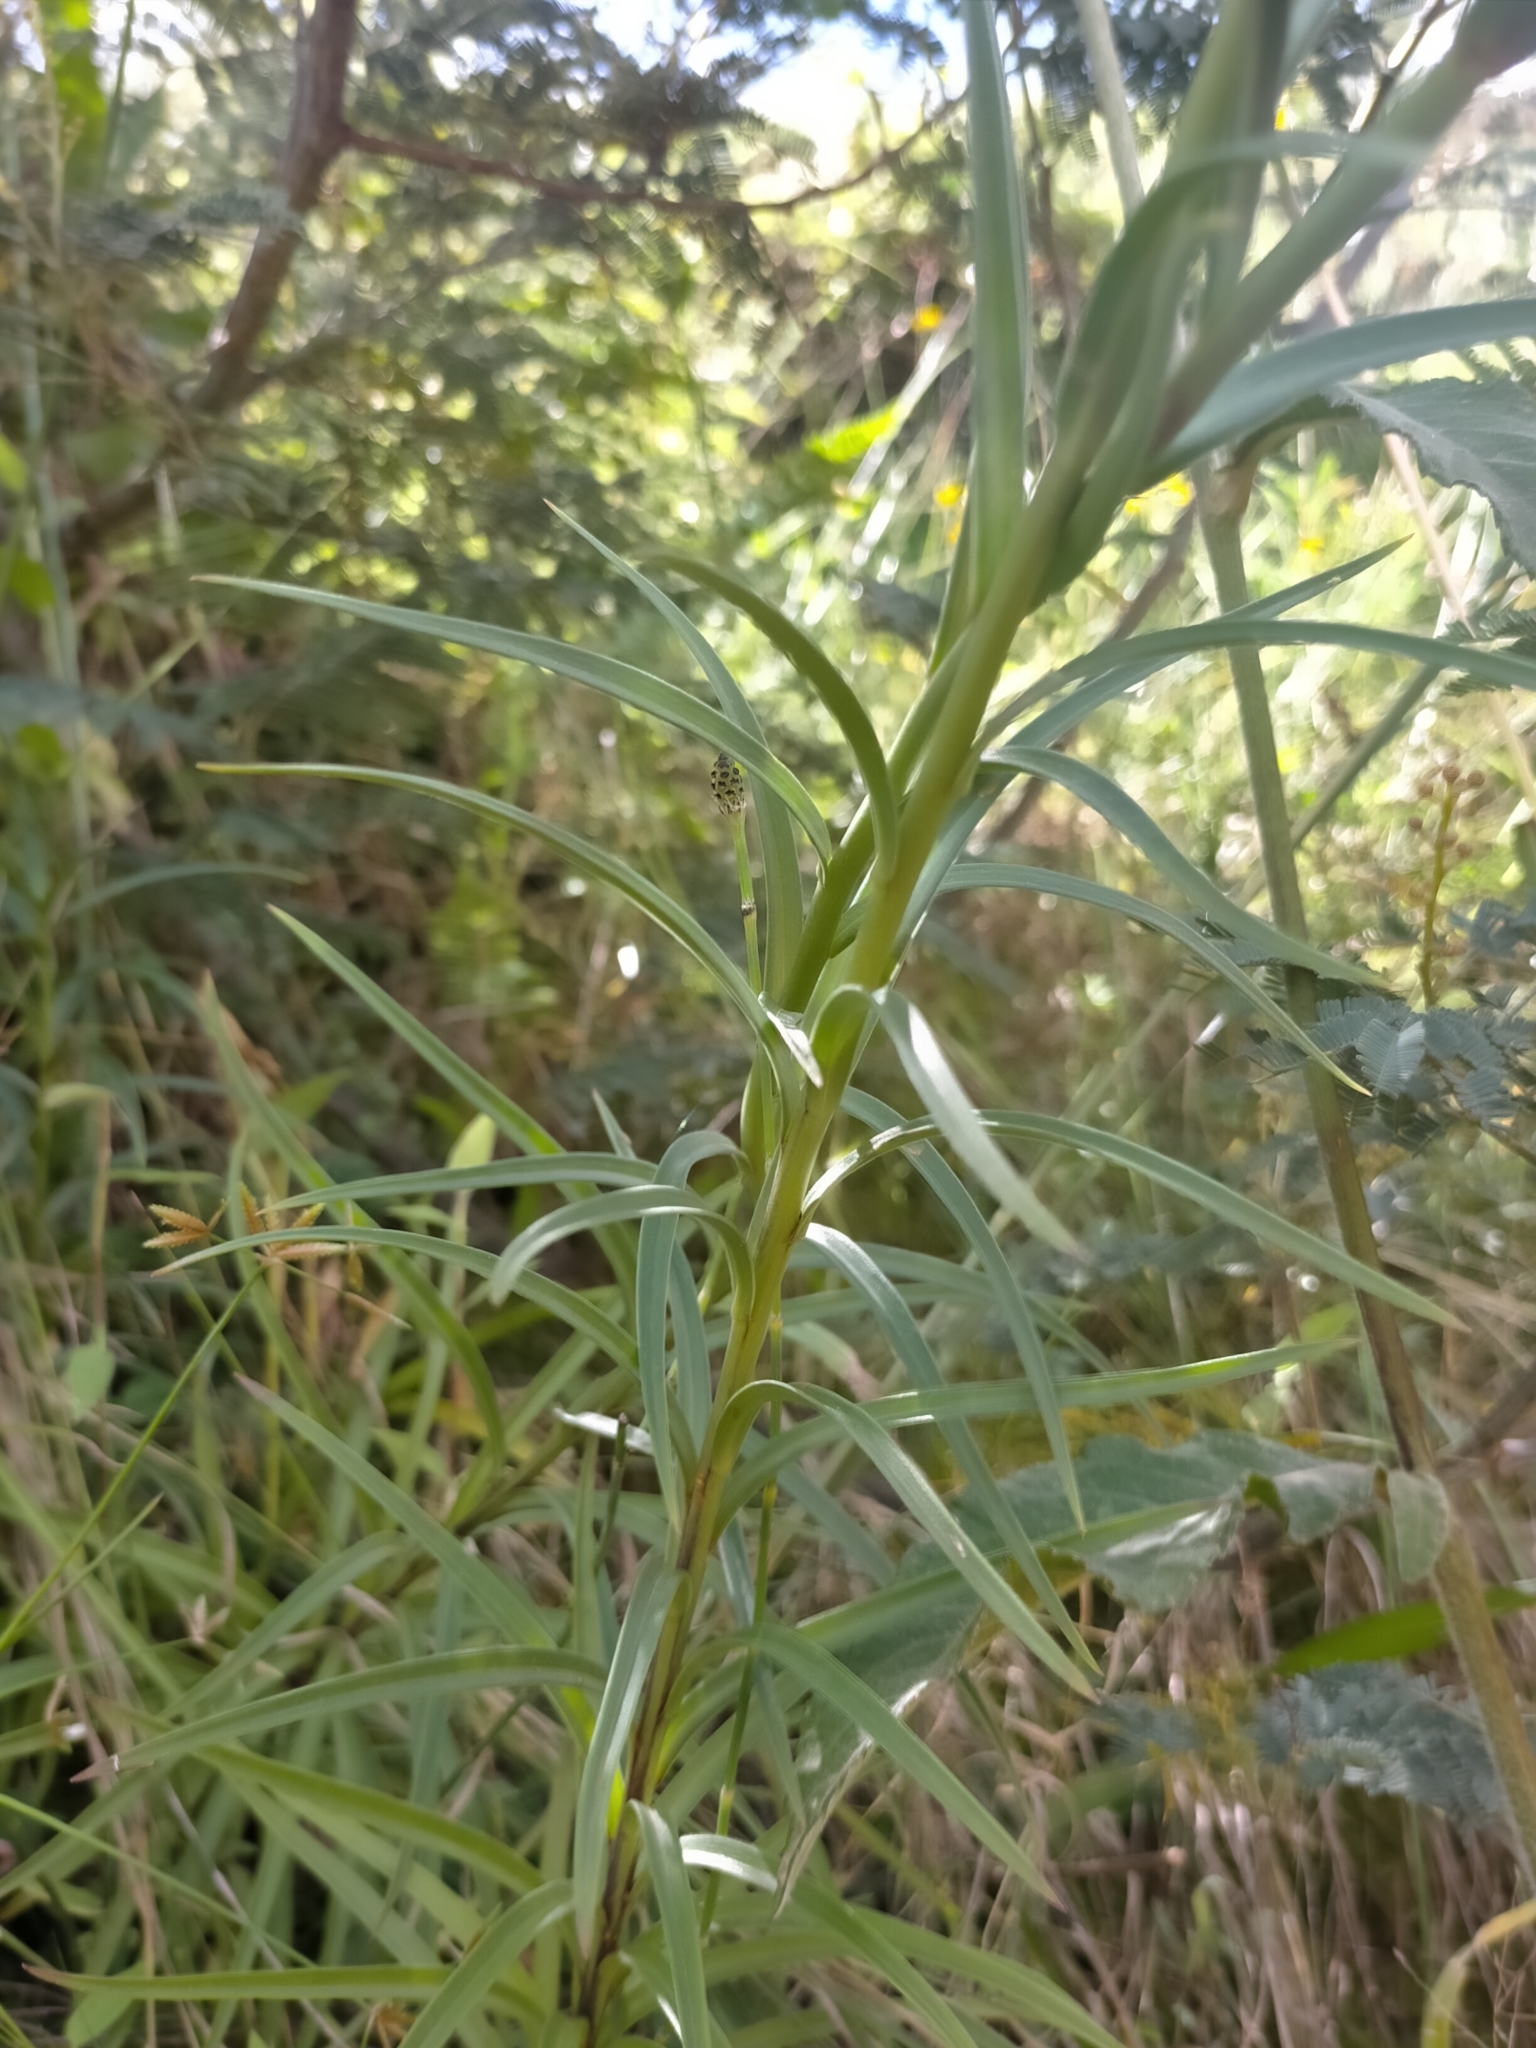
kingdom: Plantae
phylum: Tracheophyta
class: Liliopsida
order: Liliales
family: Liliaceae
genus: Lilium
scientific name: Lilium longiflorum
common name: Easter lily
